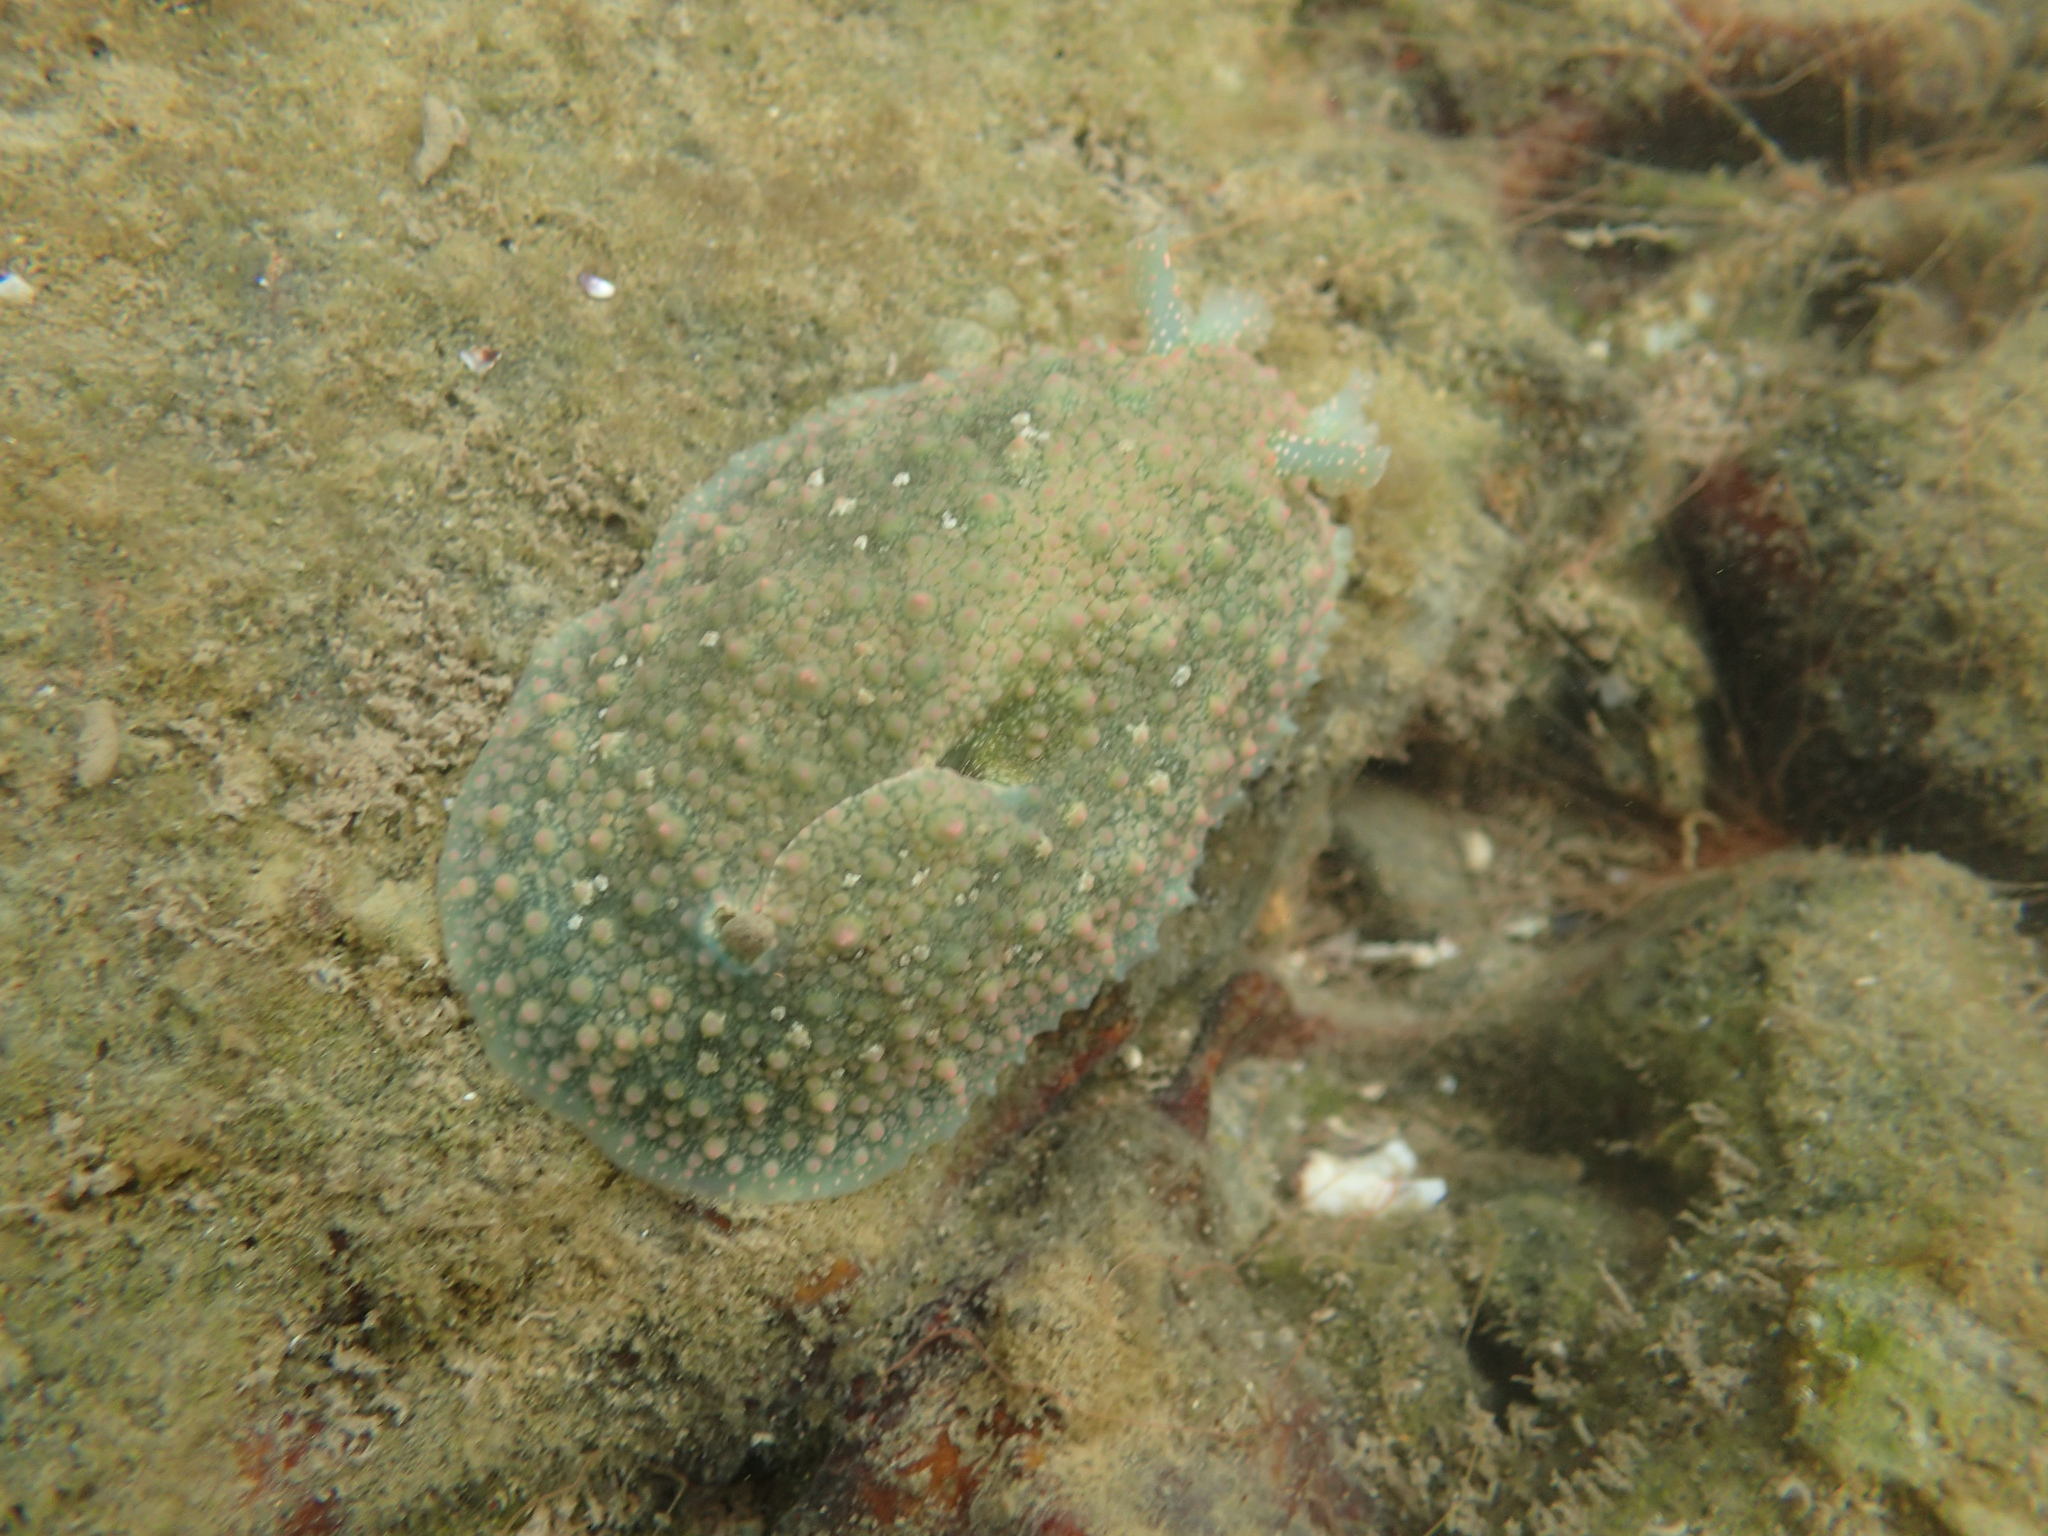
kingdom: Animalia
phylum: Mollusca
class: Gastropoda
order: Aplysiida
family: Aplysiidae
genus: Dolabrifera
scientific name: Dolabrifera nicaraguana
